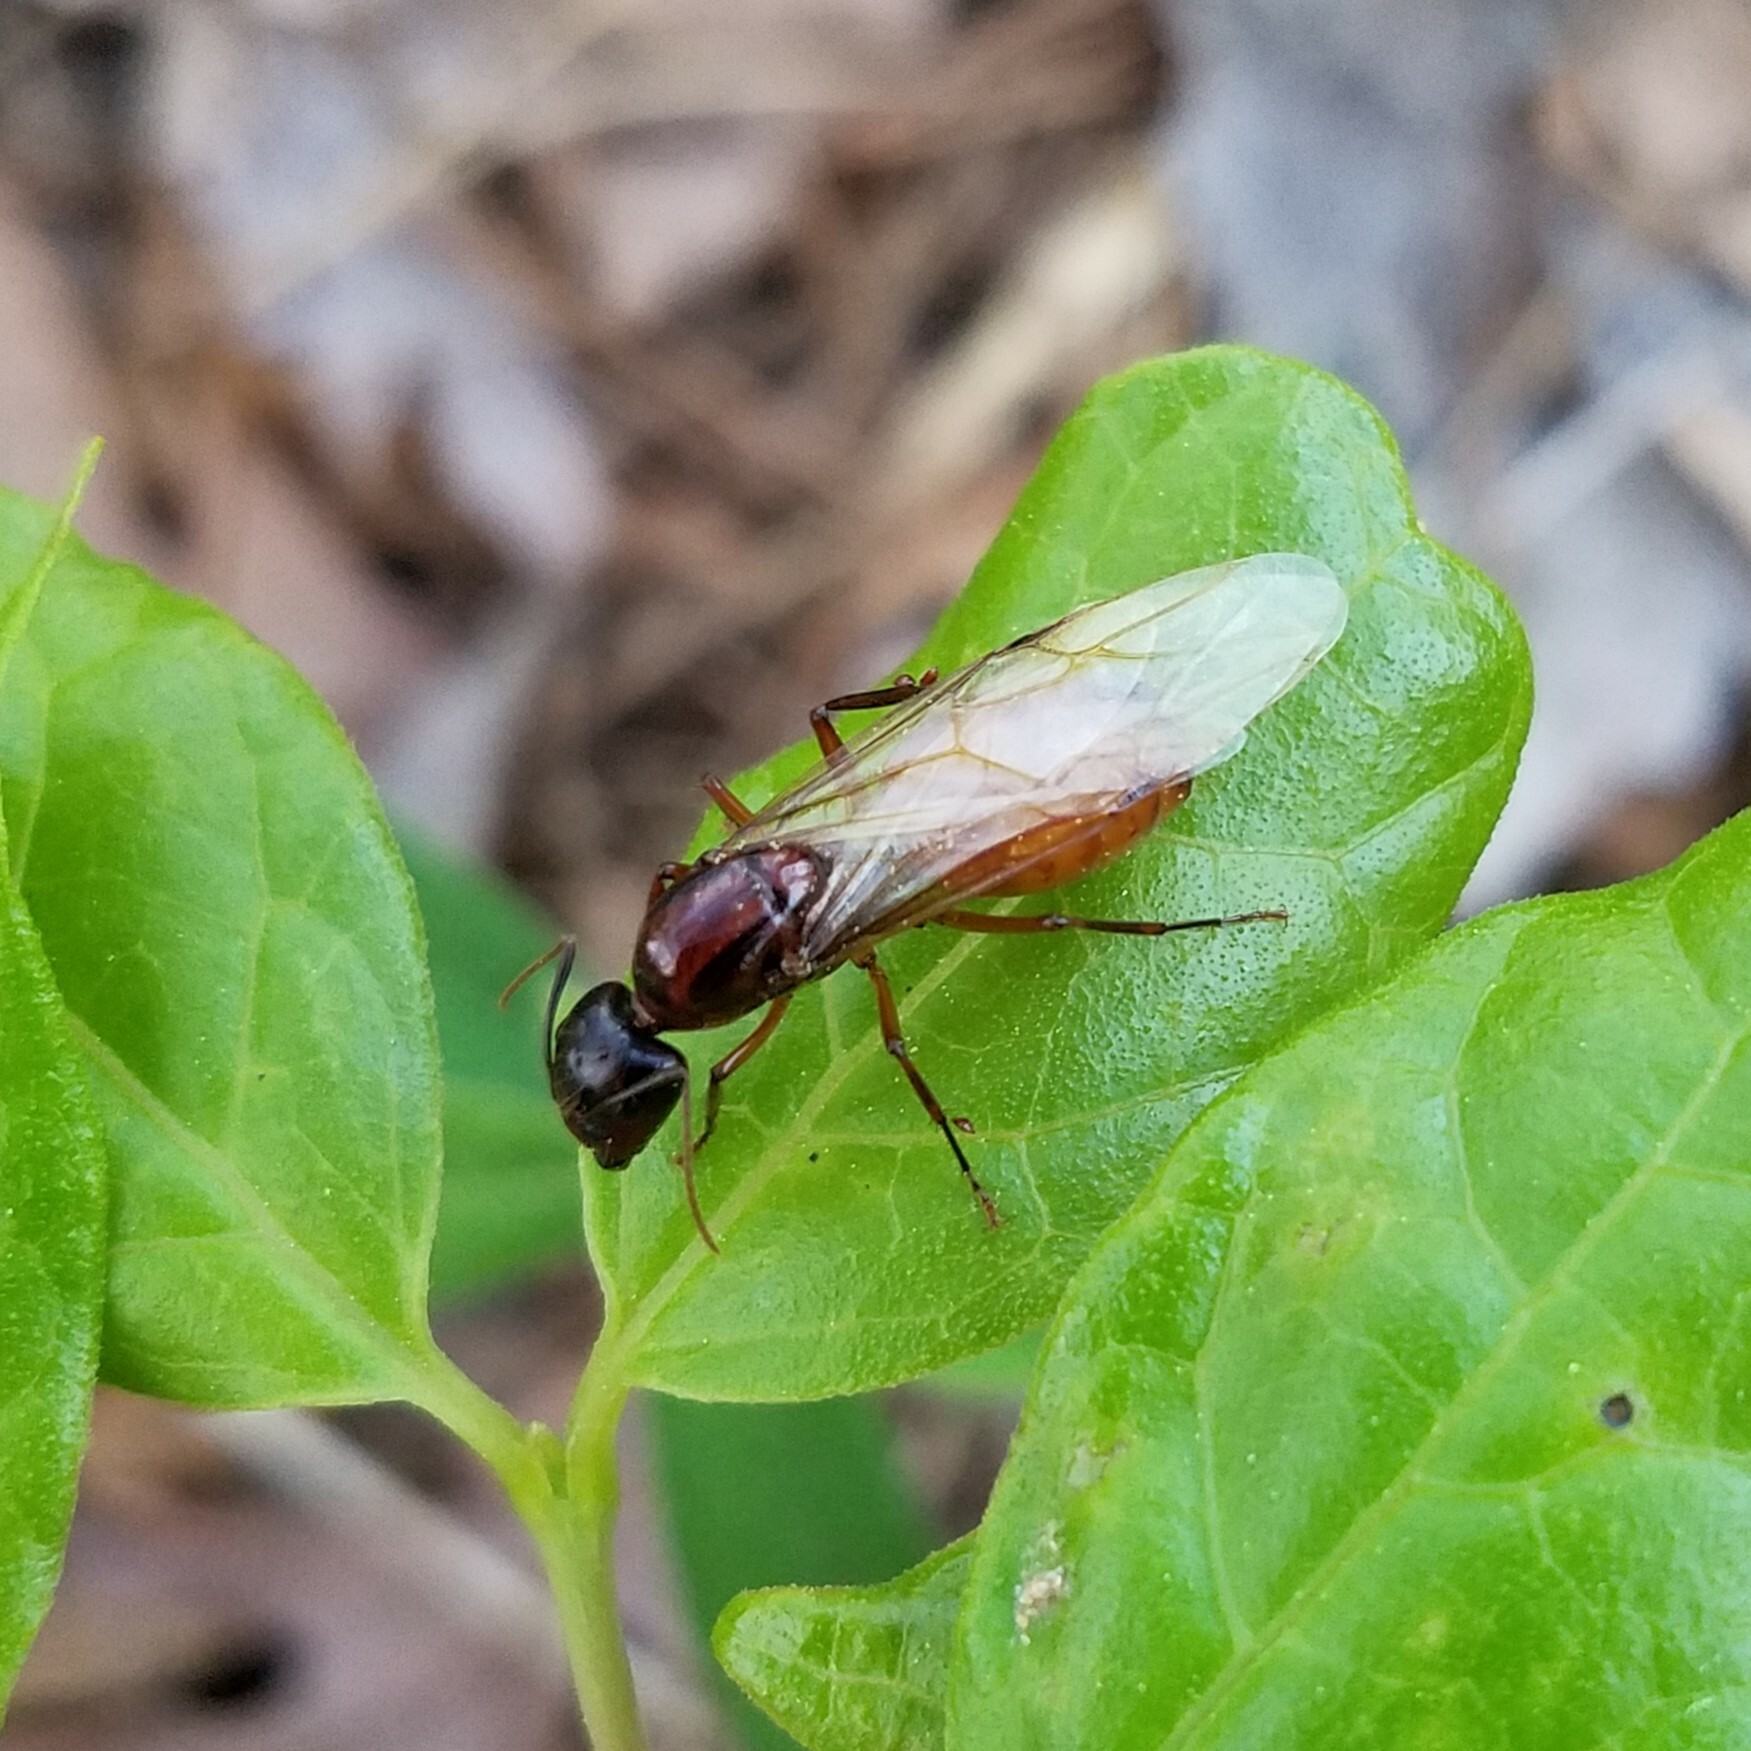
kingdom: Animalia
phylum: Arthropoda
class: Insecta
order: Hymenoptera
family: Formicidae
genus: Camponotus
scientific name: Camponotus americanus
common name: American carpenter ant
